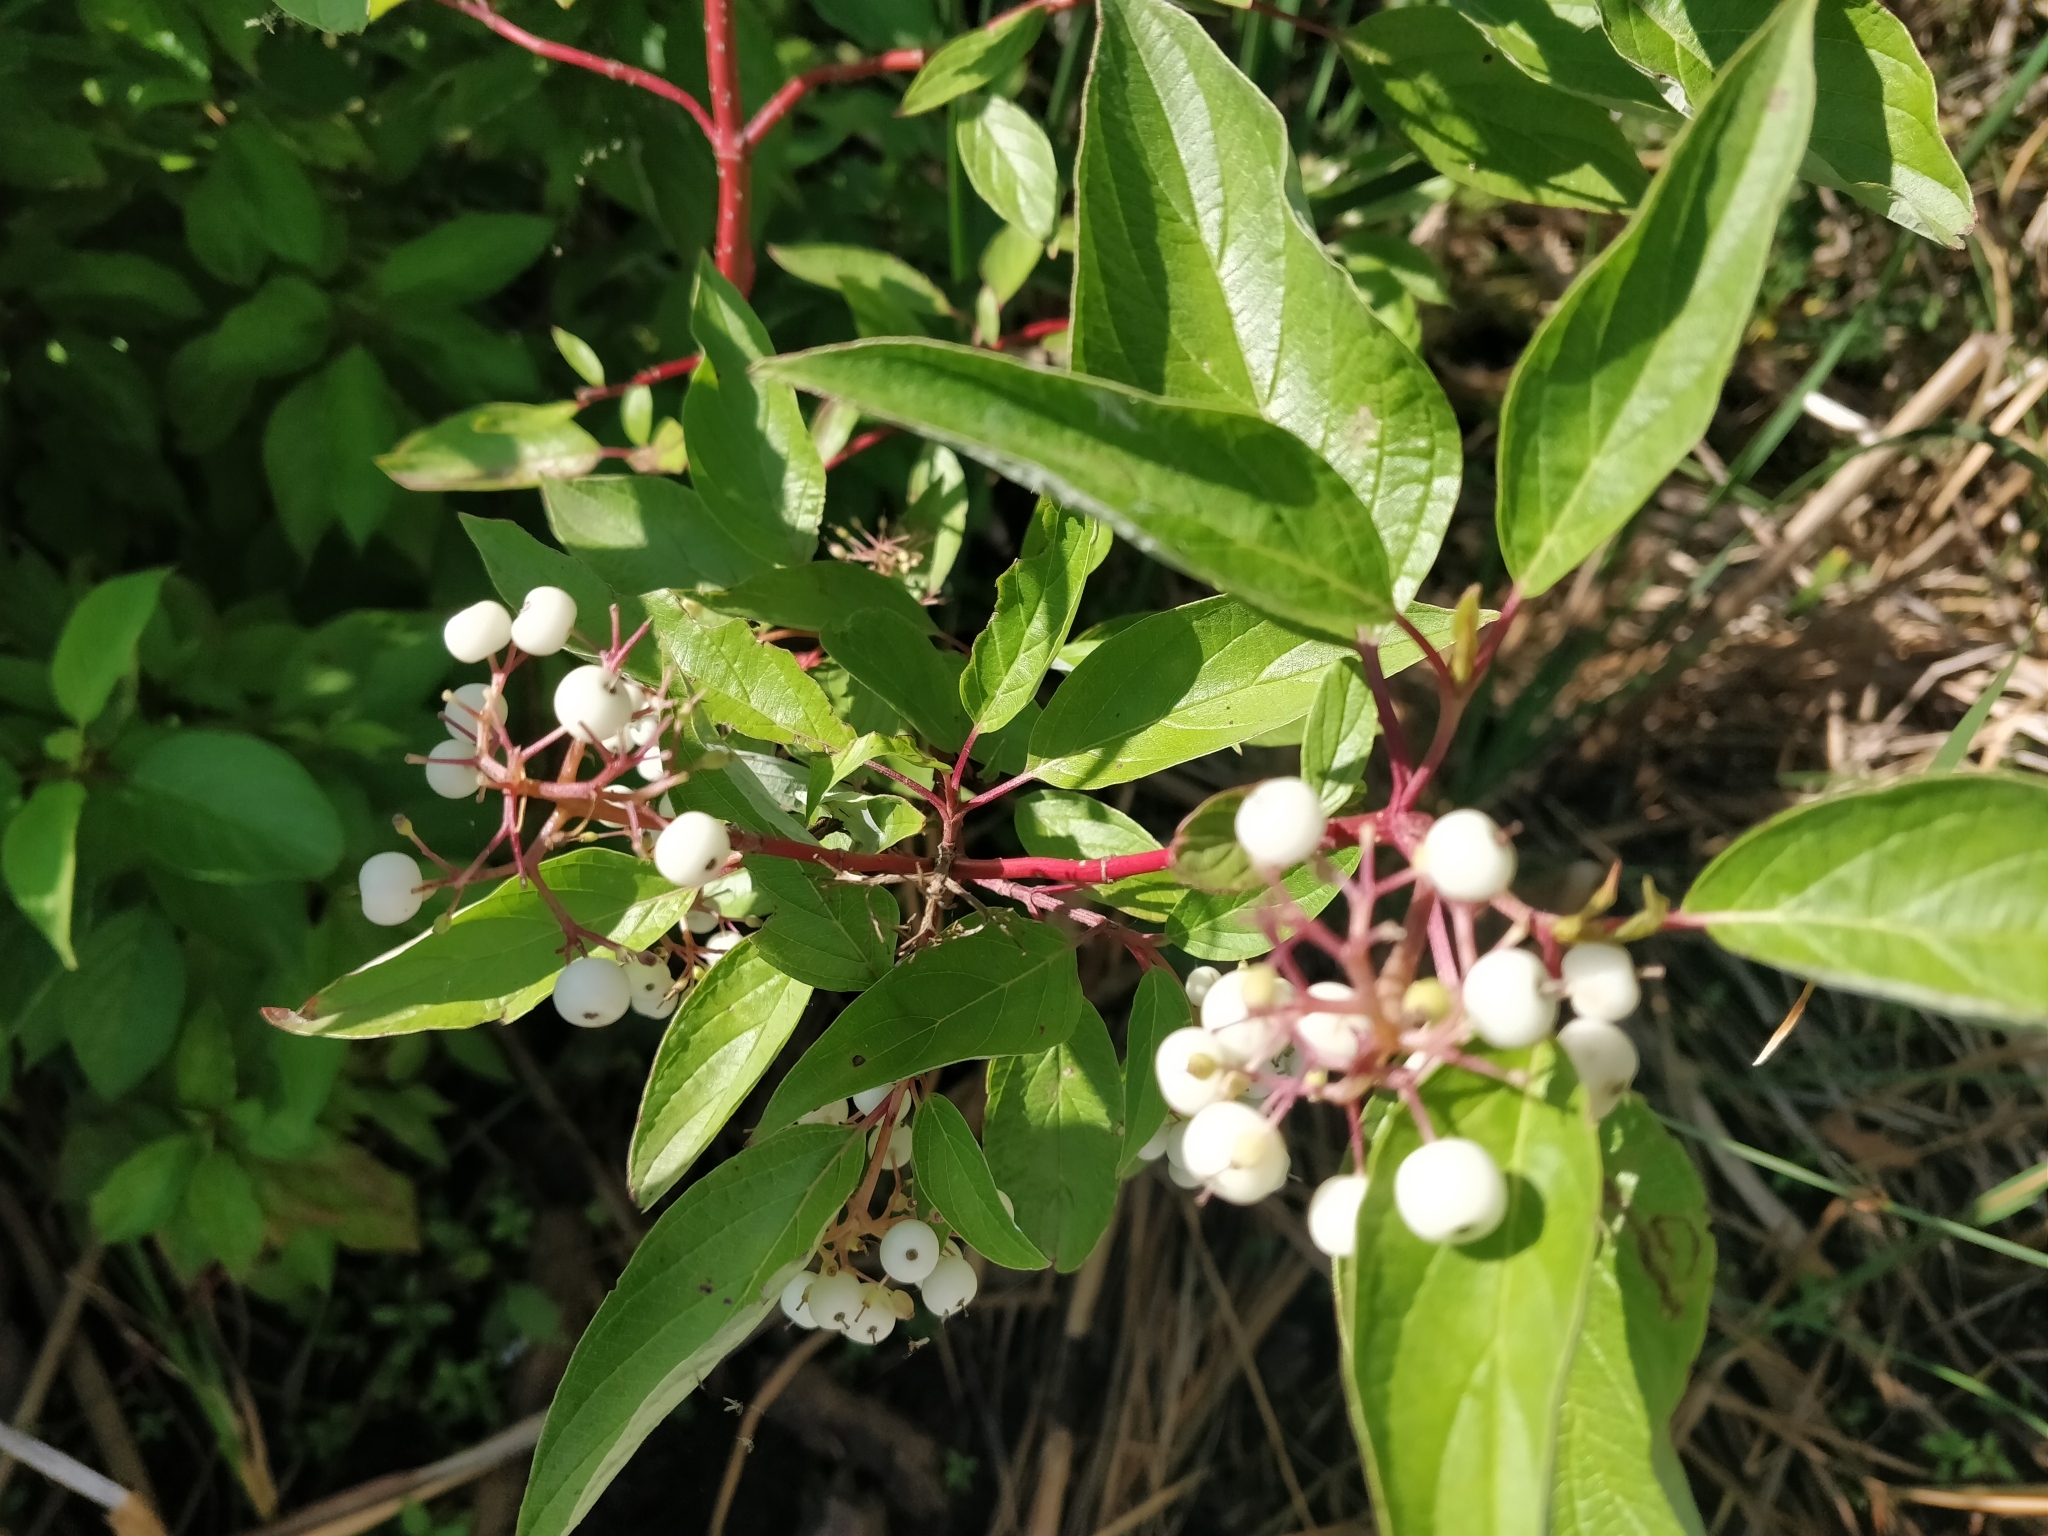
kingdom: Plantae
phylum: Tracheophyta
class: Magnoliopsida
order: Cornales
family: Cornaceae
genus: Cornus
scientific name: Cornus sericea
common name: Red-osier dogwood
